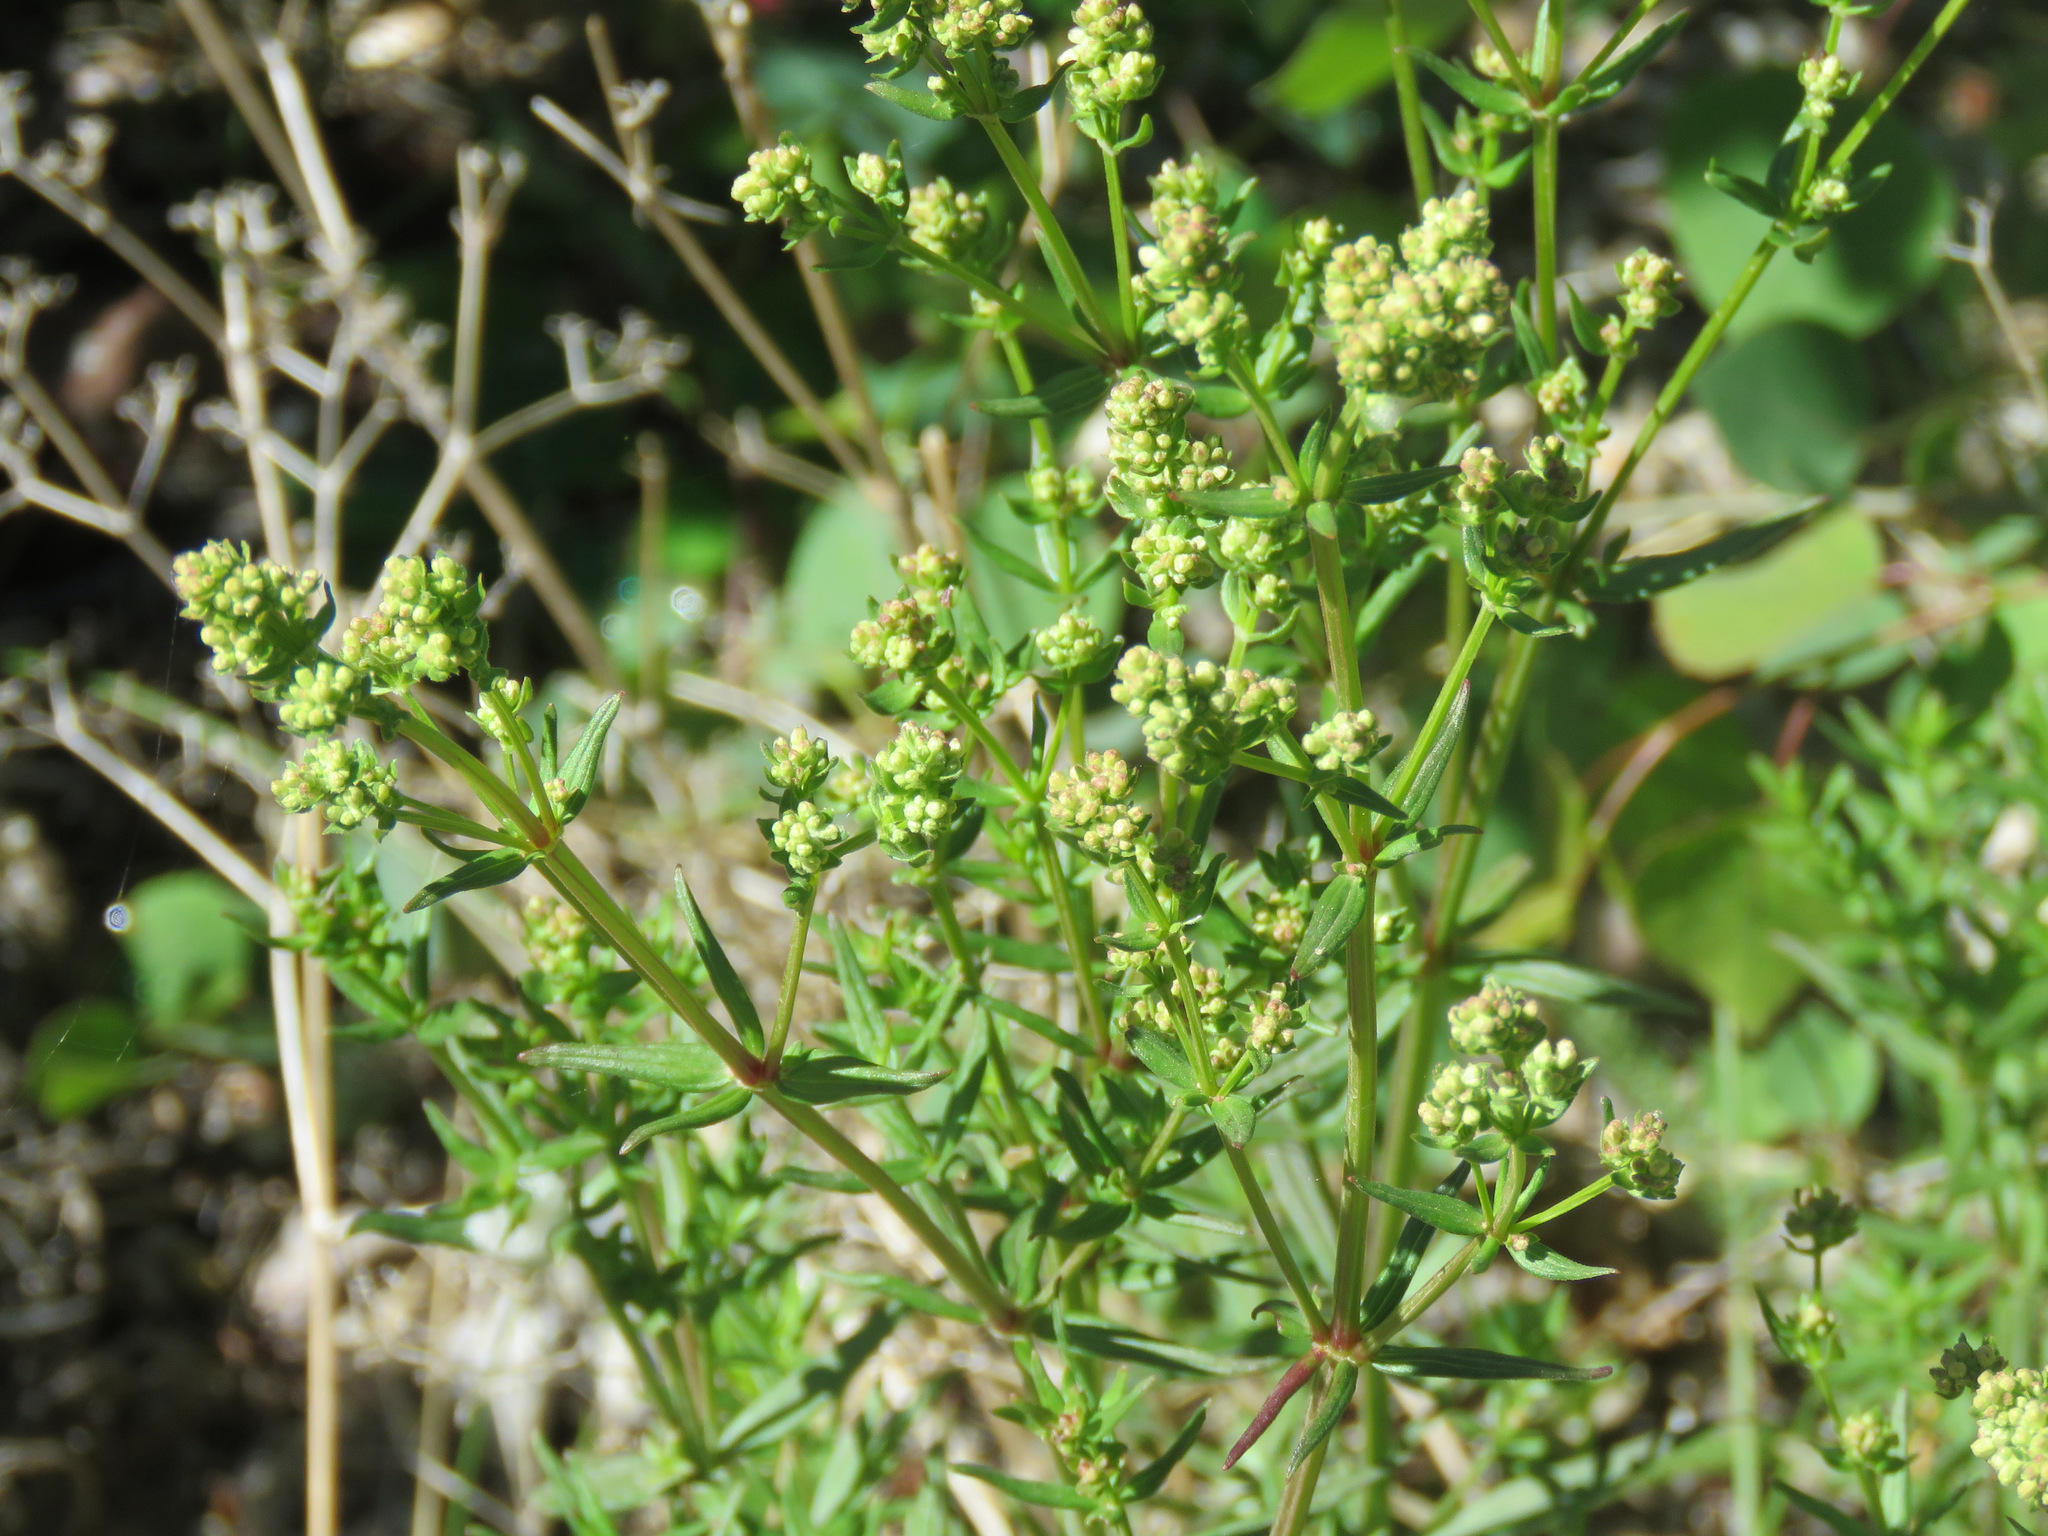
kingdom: Plantae
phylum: Tracheophyta
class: Magnoliopsida
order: Gentianales
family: Rubiaceae
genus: Galium
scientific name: Galium boreale
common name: Northern bedstraw
